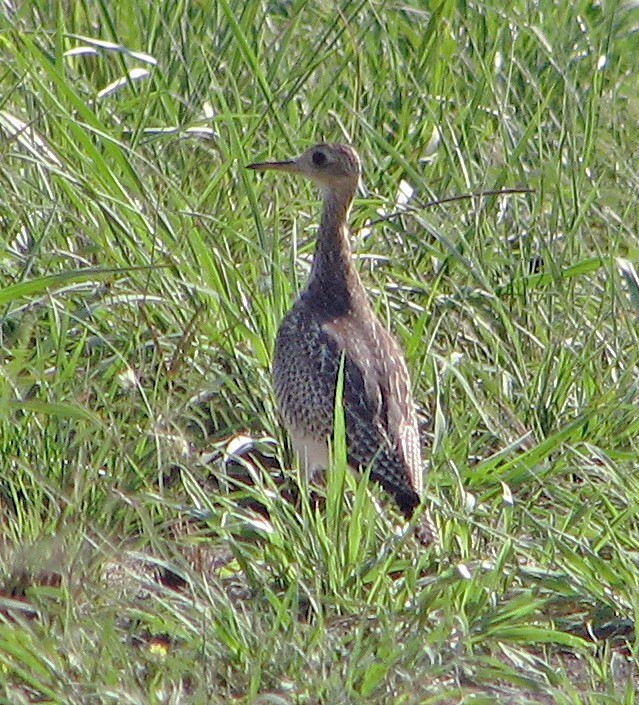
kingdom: Animalia
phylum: Chordata
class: Aves
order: Charadriiformes
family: Scolopacidae
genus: Bartramia
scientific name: Bartramia longicauda
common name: Upland sandpiper
